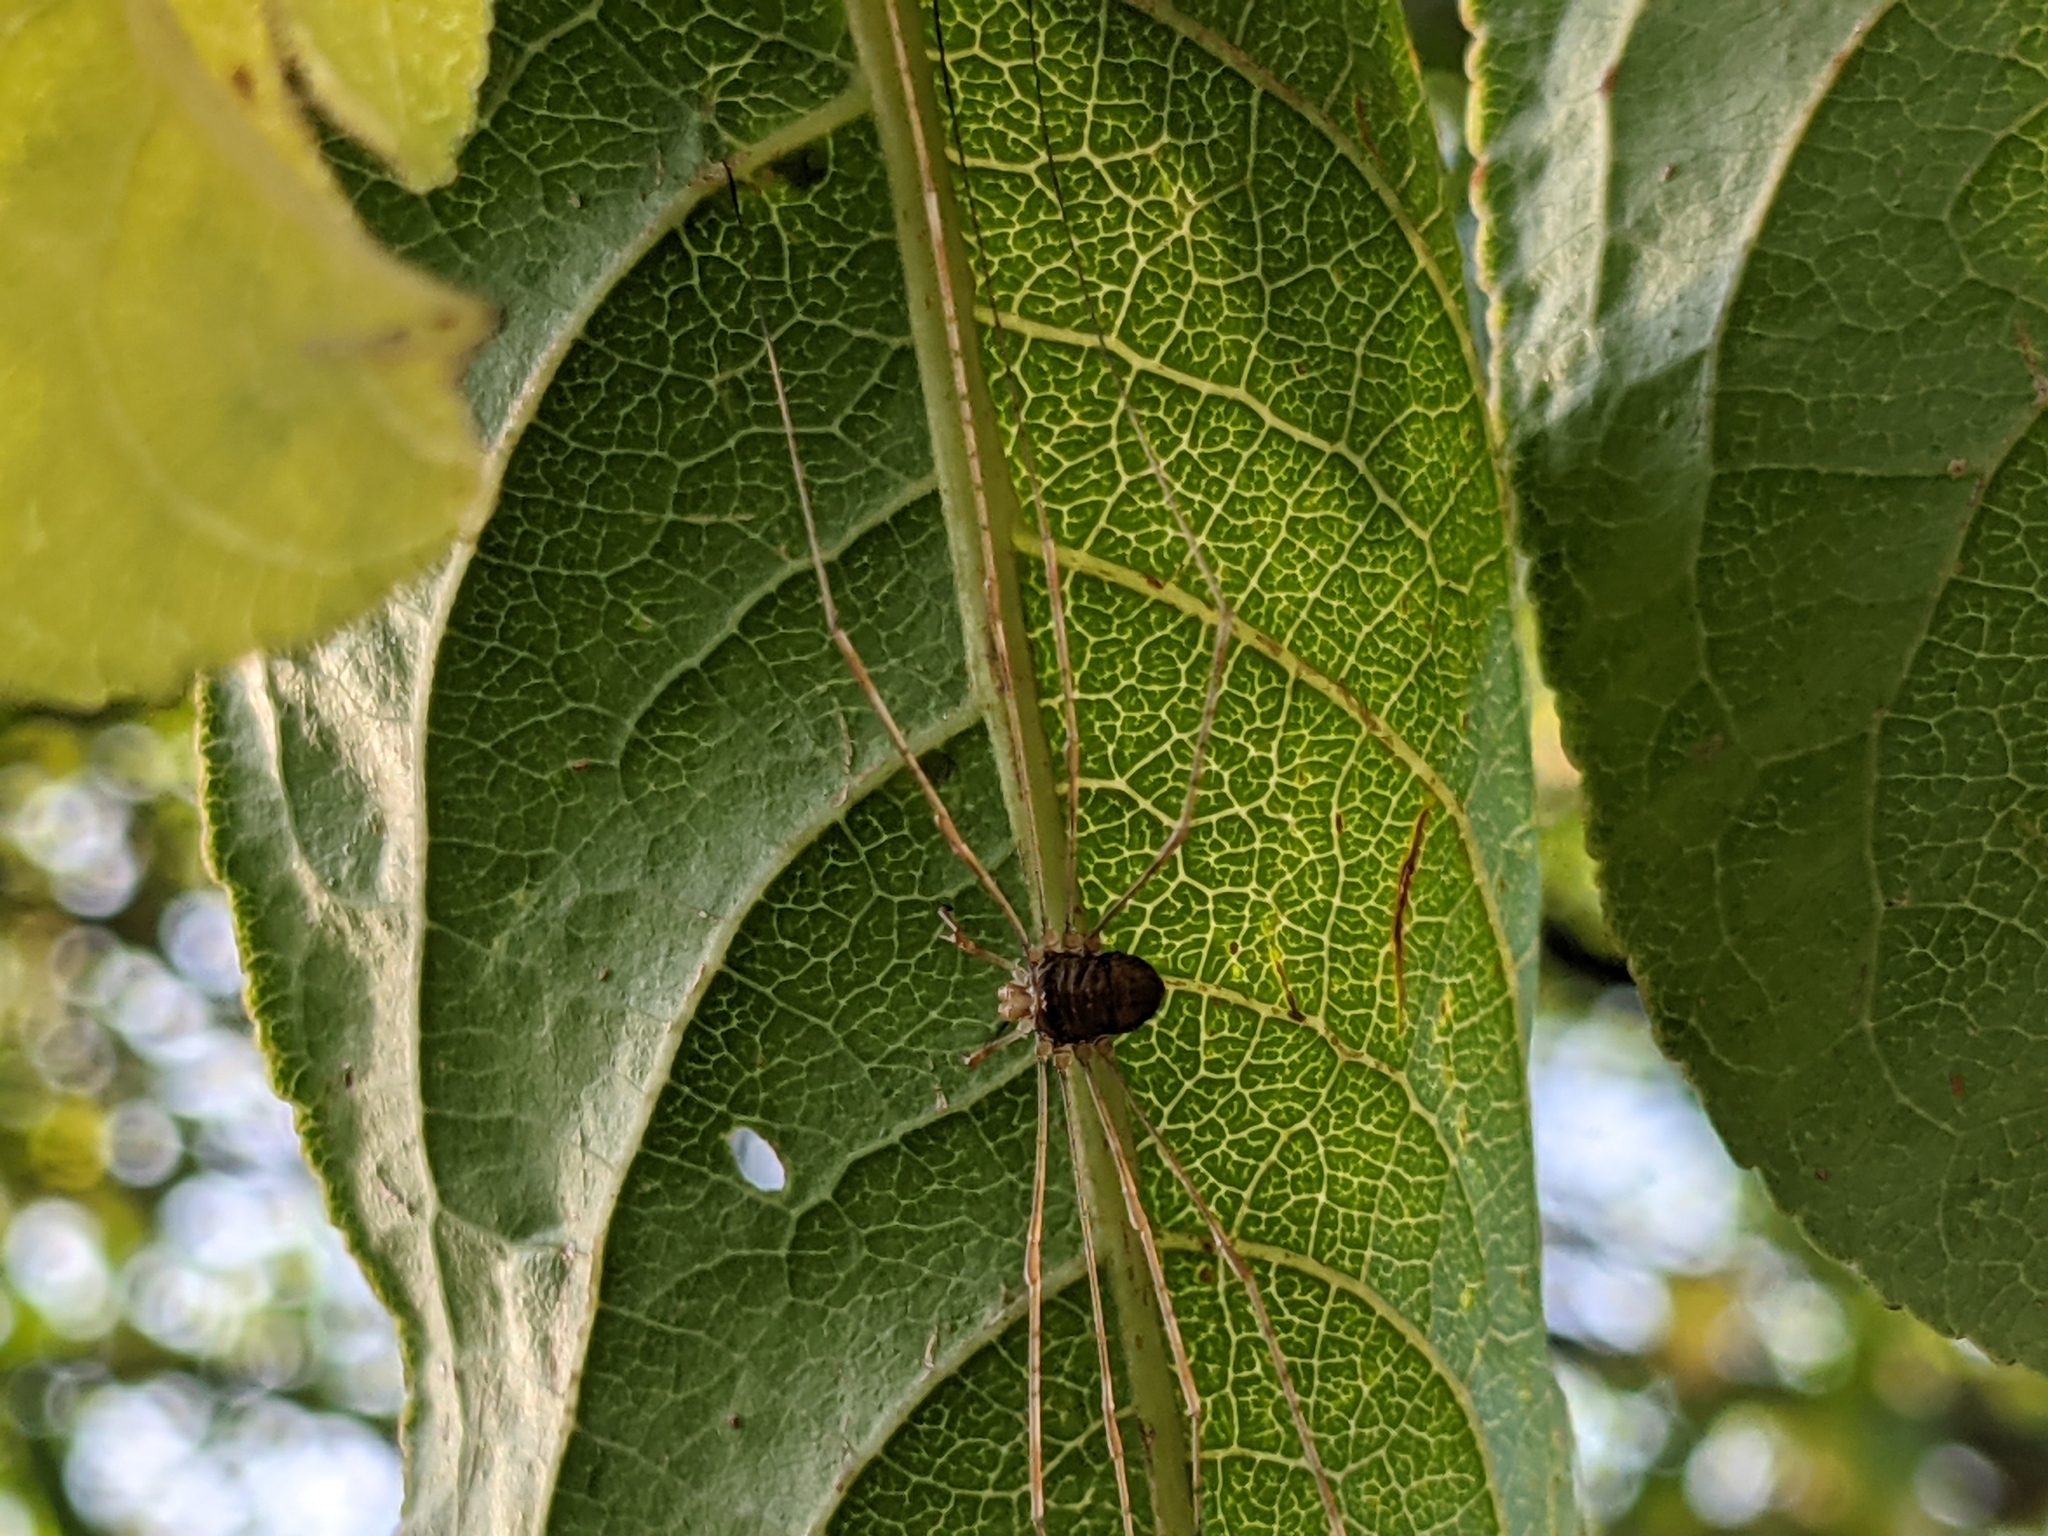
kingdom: Animalia
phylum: Arthropoda
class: Arachnida
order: Opiliones
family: Phalangiidae
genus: Dicranopalpus
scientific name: Dicranopalpus ramosus
